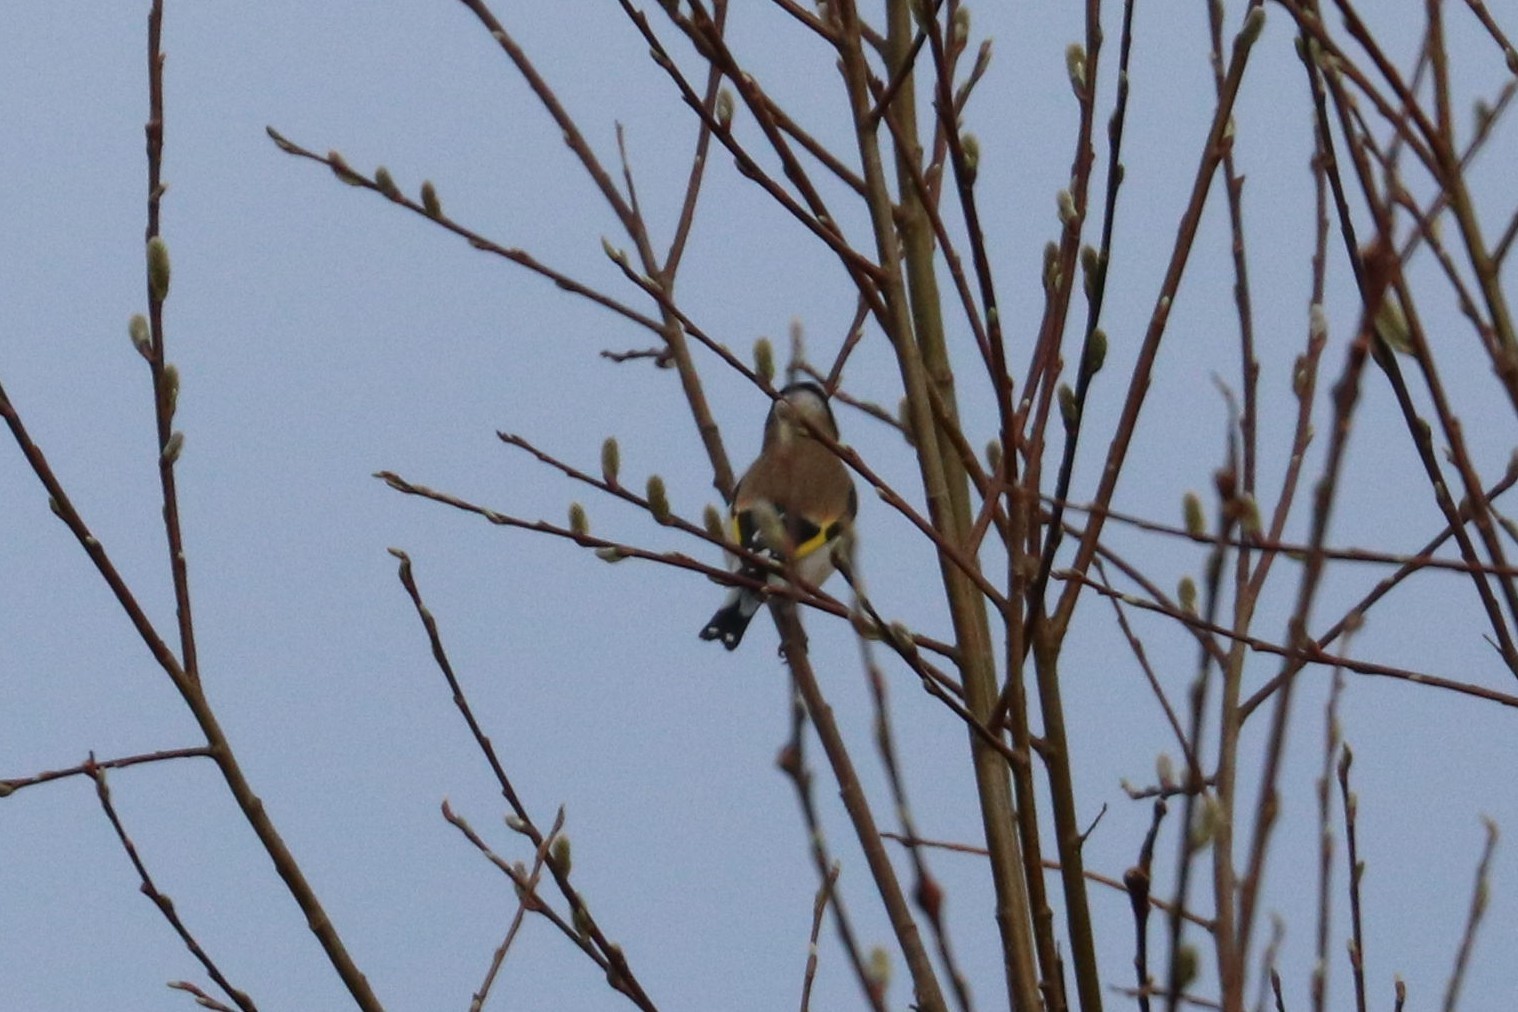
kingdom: Animalia
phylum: Chordata
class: Aves
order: Passeriformes
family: Fringillidae
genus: Carduelis
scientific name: Carduelis carduelis
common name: European goldfinch
